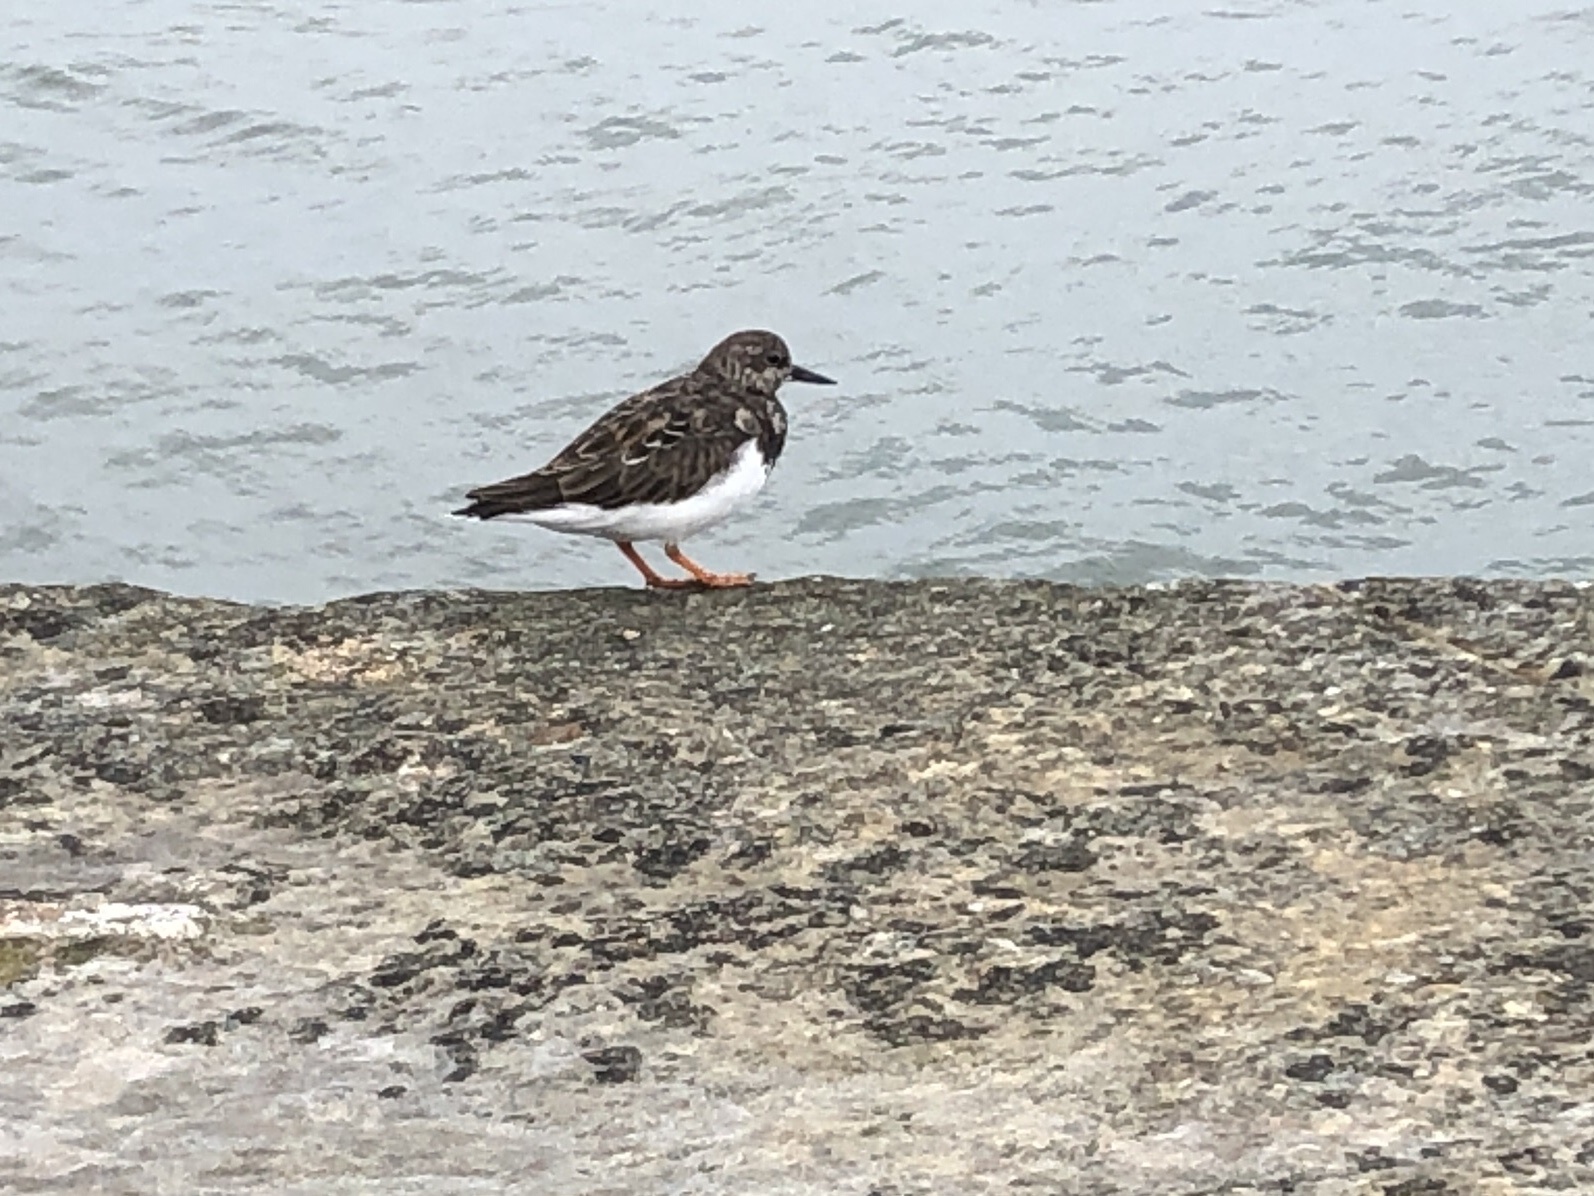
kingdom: Animalia
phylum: Chordata
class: Aves
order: Charadriiformes
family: Scolopacidae
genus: Arenaria
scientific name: Arenaria interpres
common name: Ruddy turnstone
